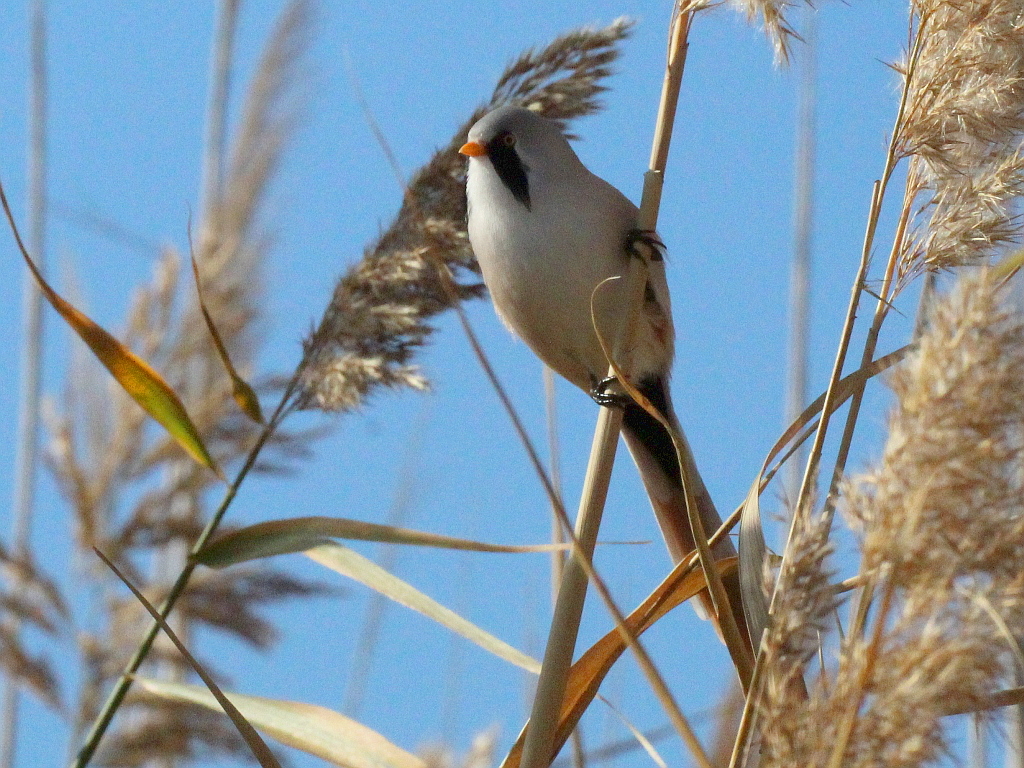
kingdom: Animalia
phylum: Chordata
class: Aves
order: Passeriformes
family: Panuridae
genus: Panurus
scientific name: Panurus biarmicus
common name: Bearded reedling
